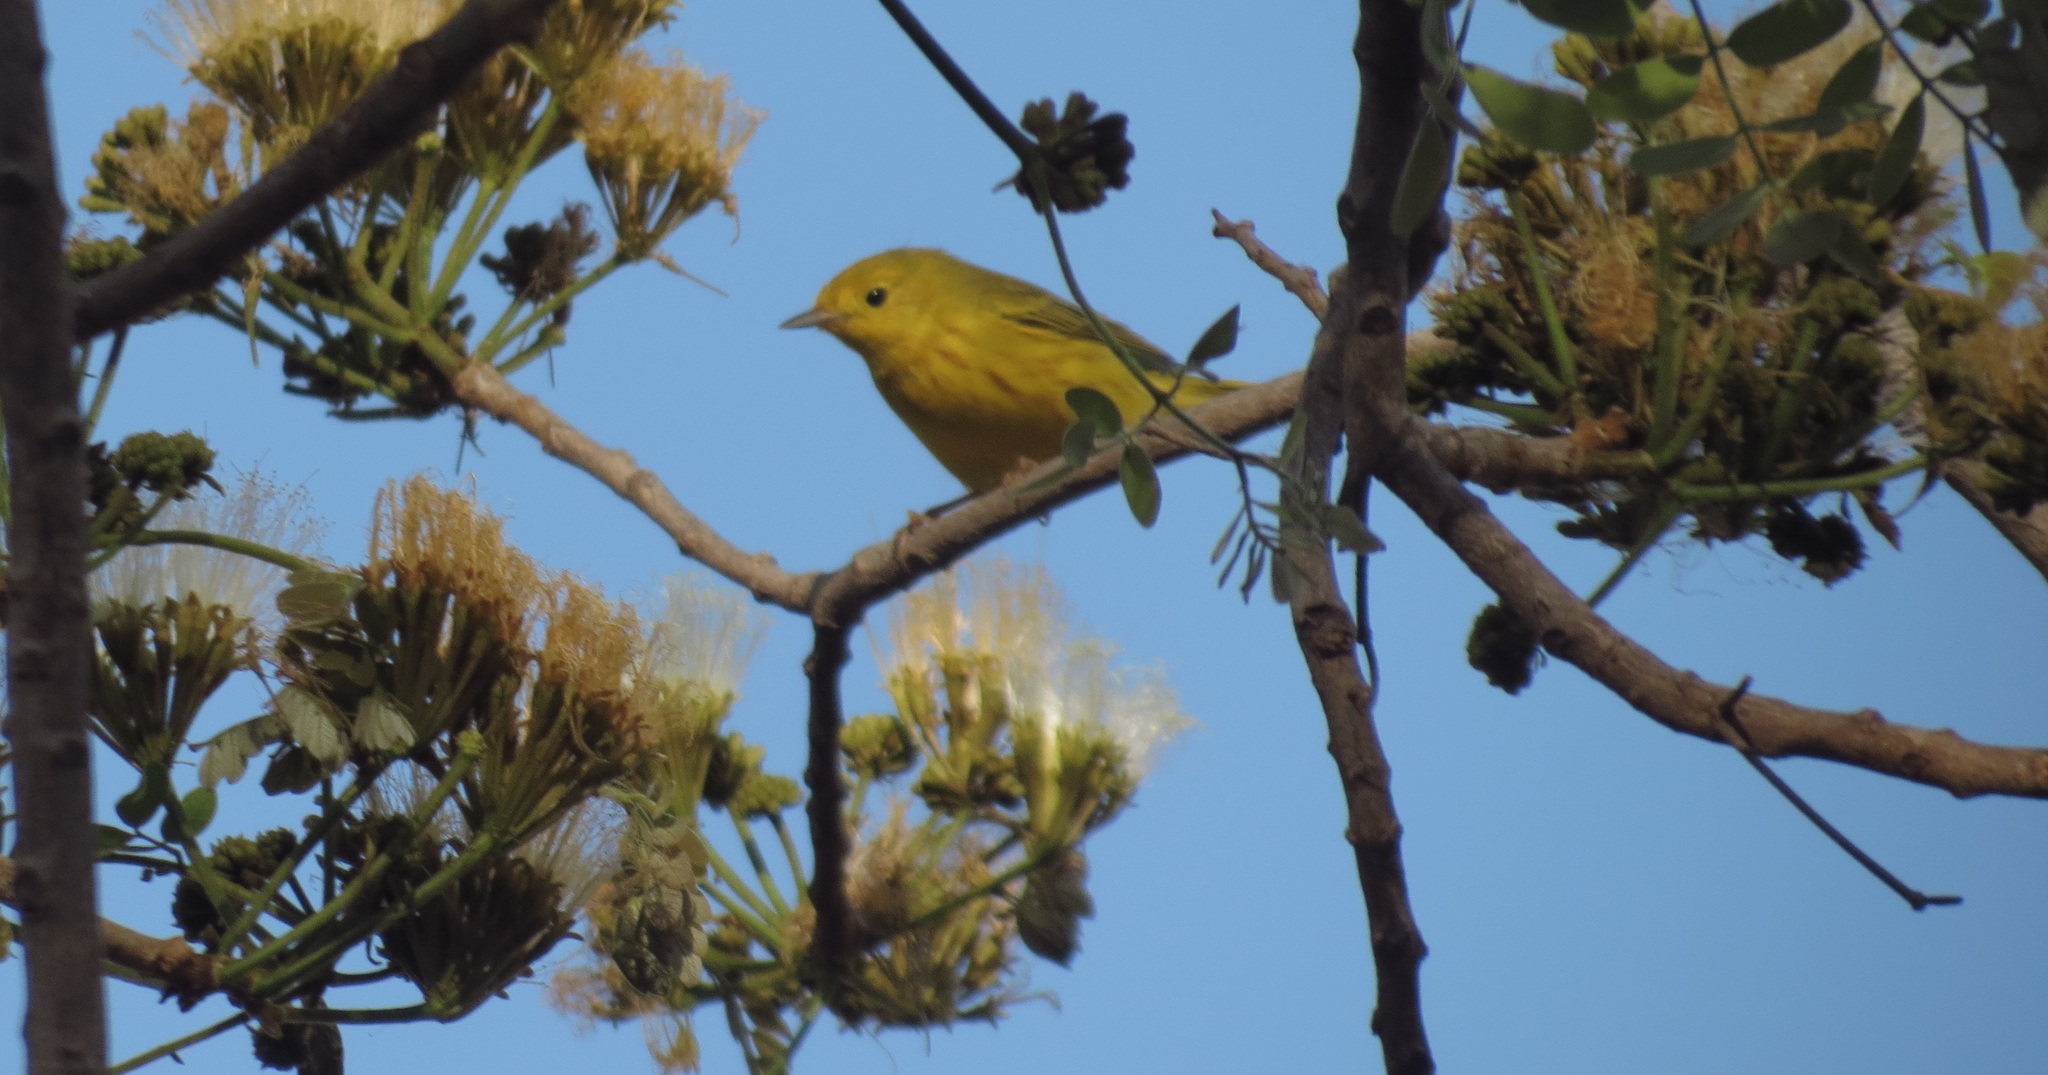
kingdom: Animalia
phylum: Chordata
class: Aves
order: Passeriformes
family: Parulidae
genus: Setophaga
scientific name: Setophaga petechia
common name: Yellow warbler
